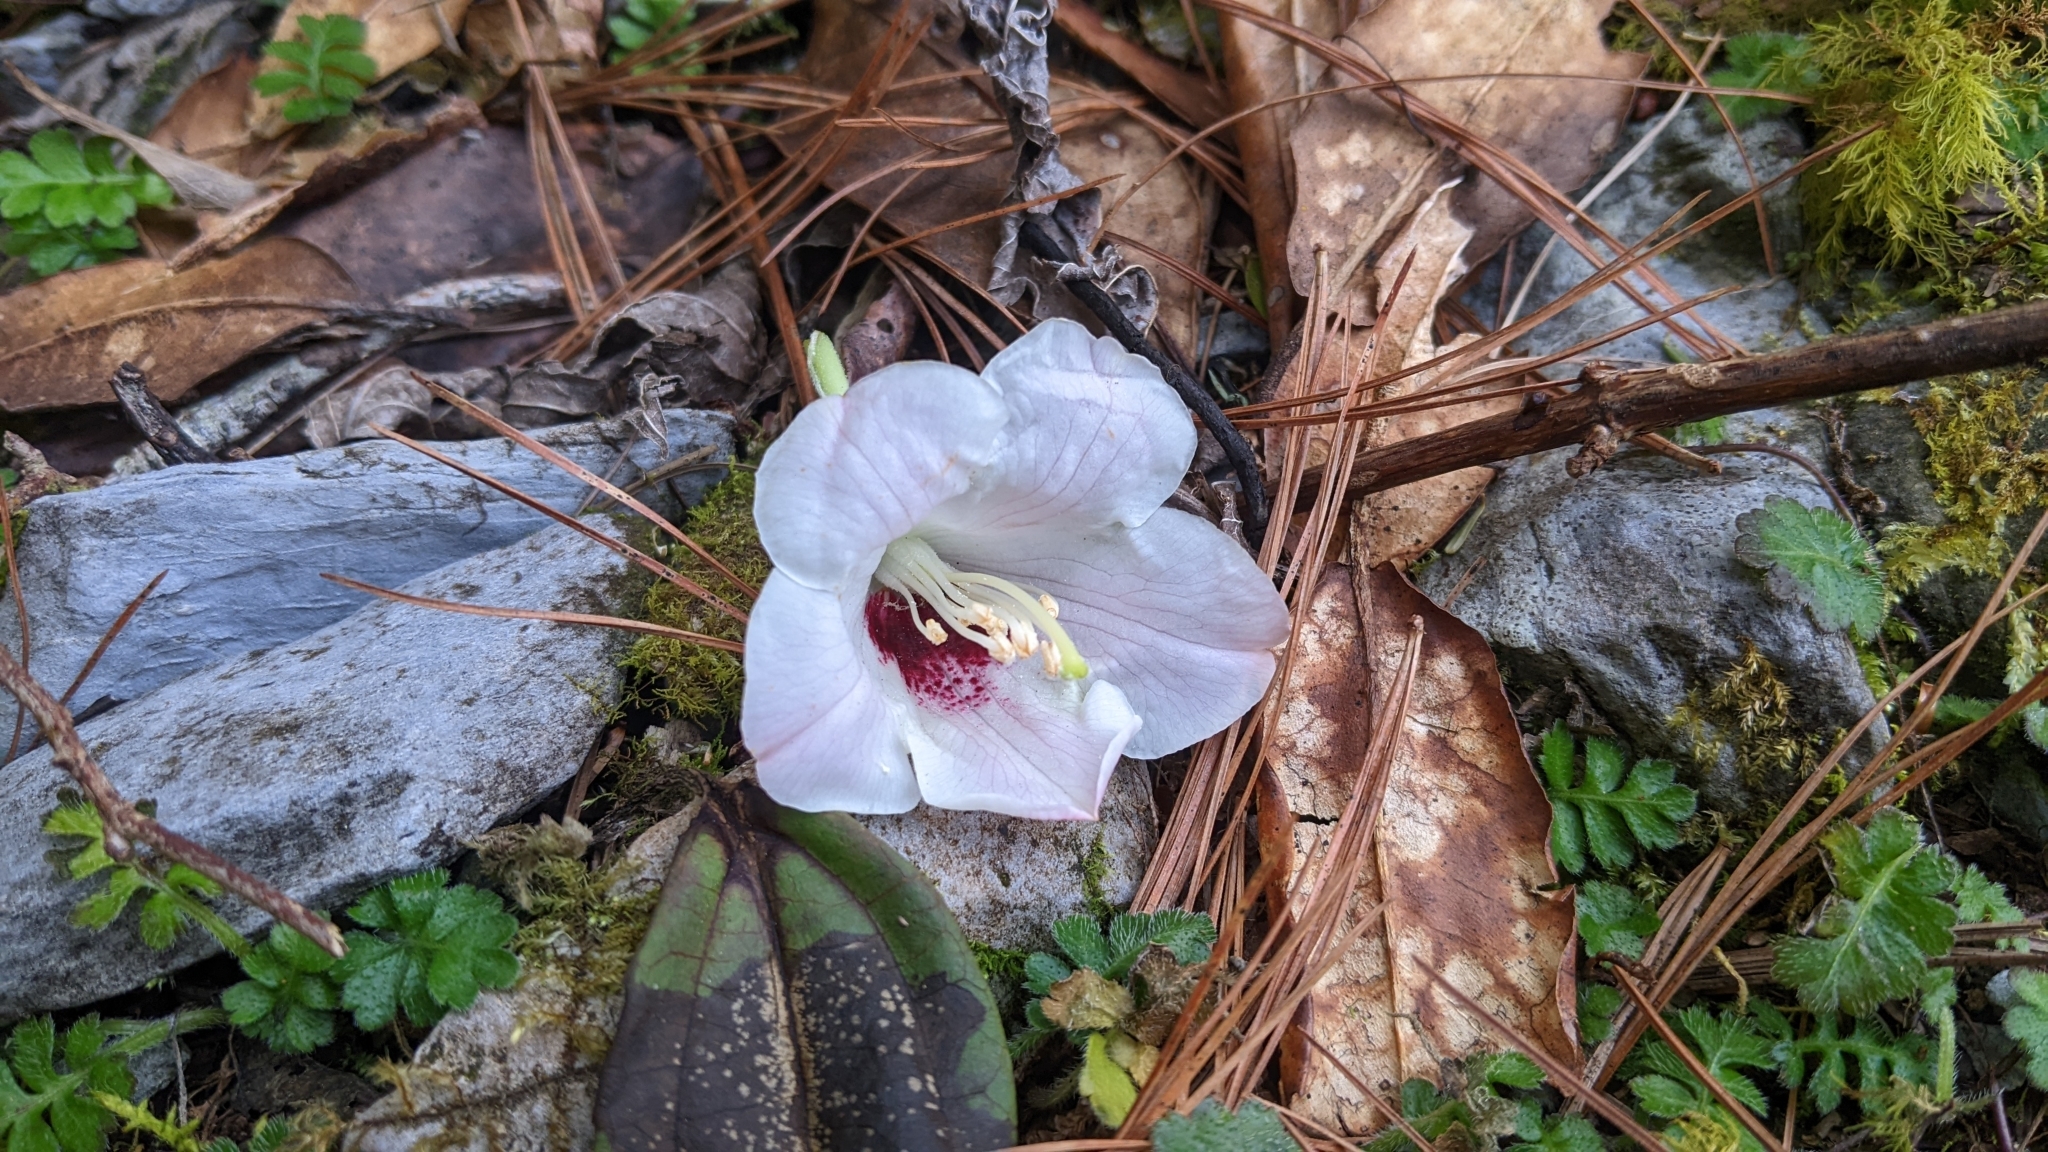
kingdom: Plantae
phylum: Tracheophyta
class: Magnoliopsida
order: Ericales
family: Ericaceae
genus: Rhododendron
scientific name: Rhododendron pseudochrysanthum
